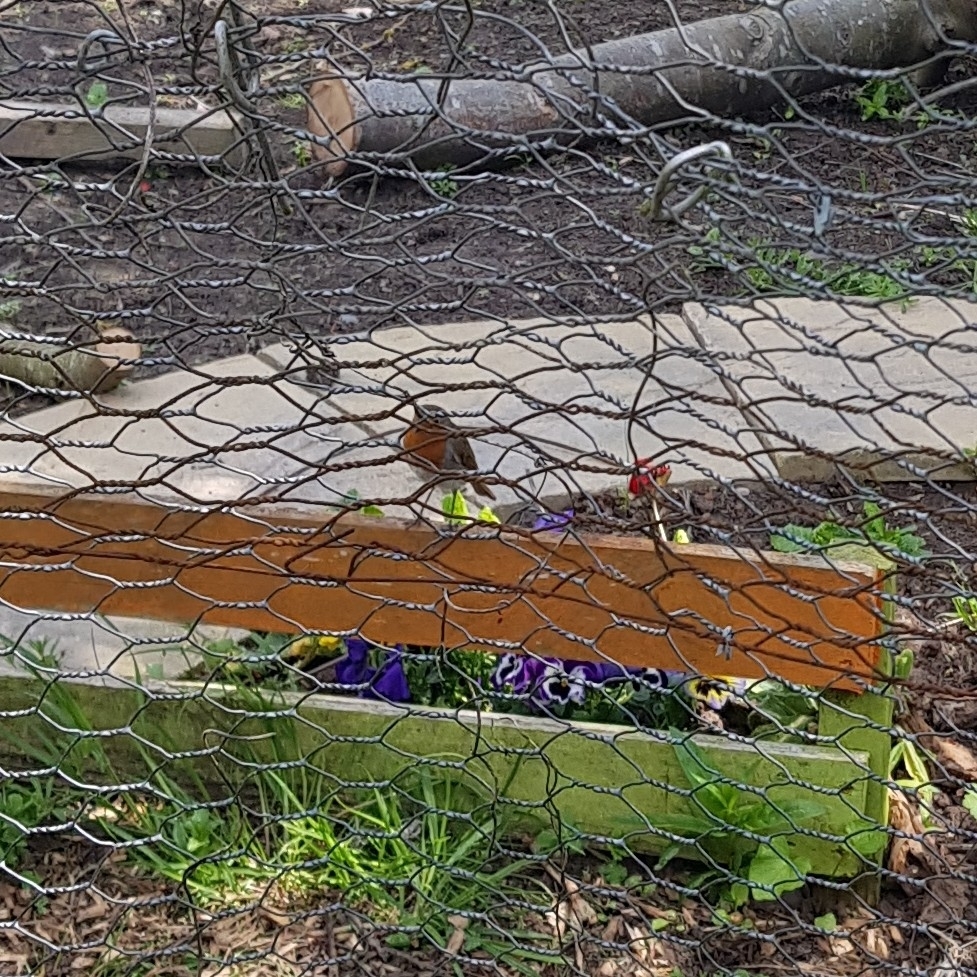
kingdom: Animalia
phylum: Chordata
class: Aves
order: Passeriformes
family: Muscicapidae
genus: Erithacus
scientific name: Erithacus rubecula
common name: European robin
